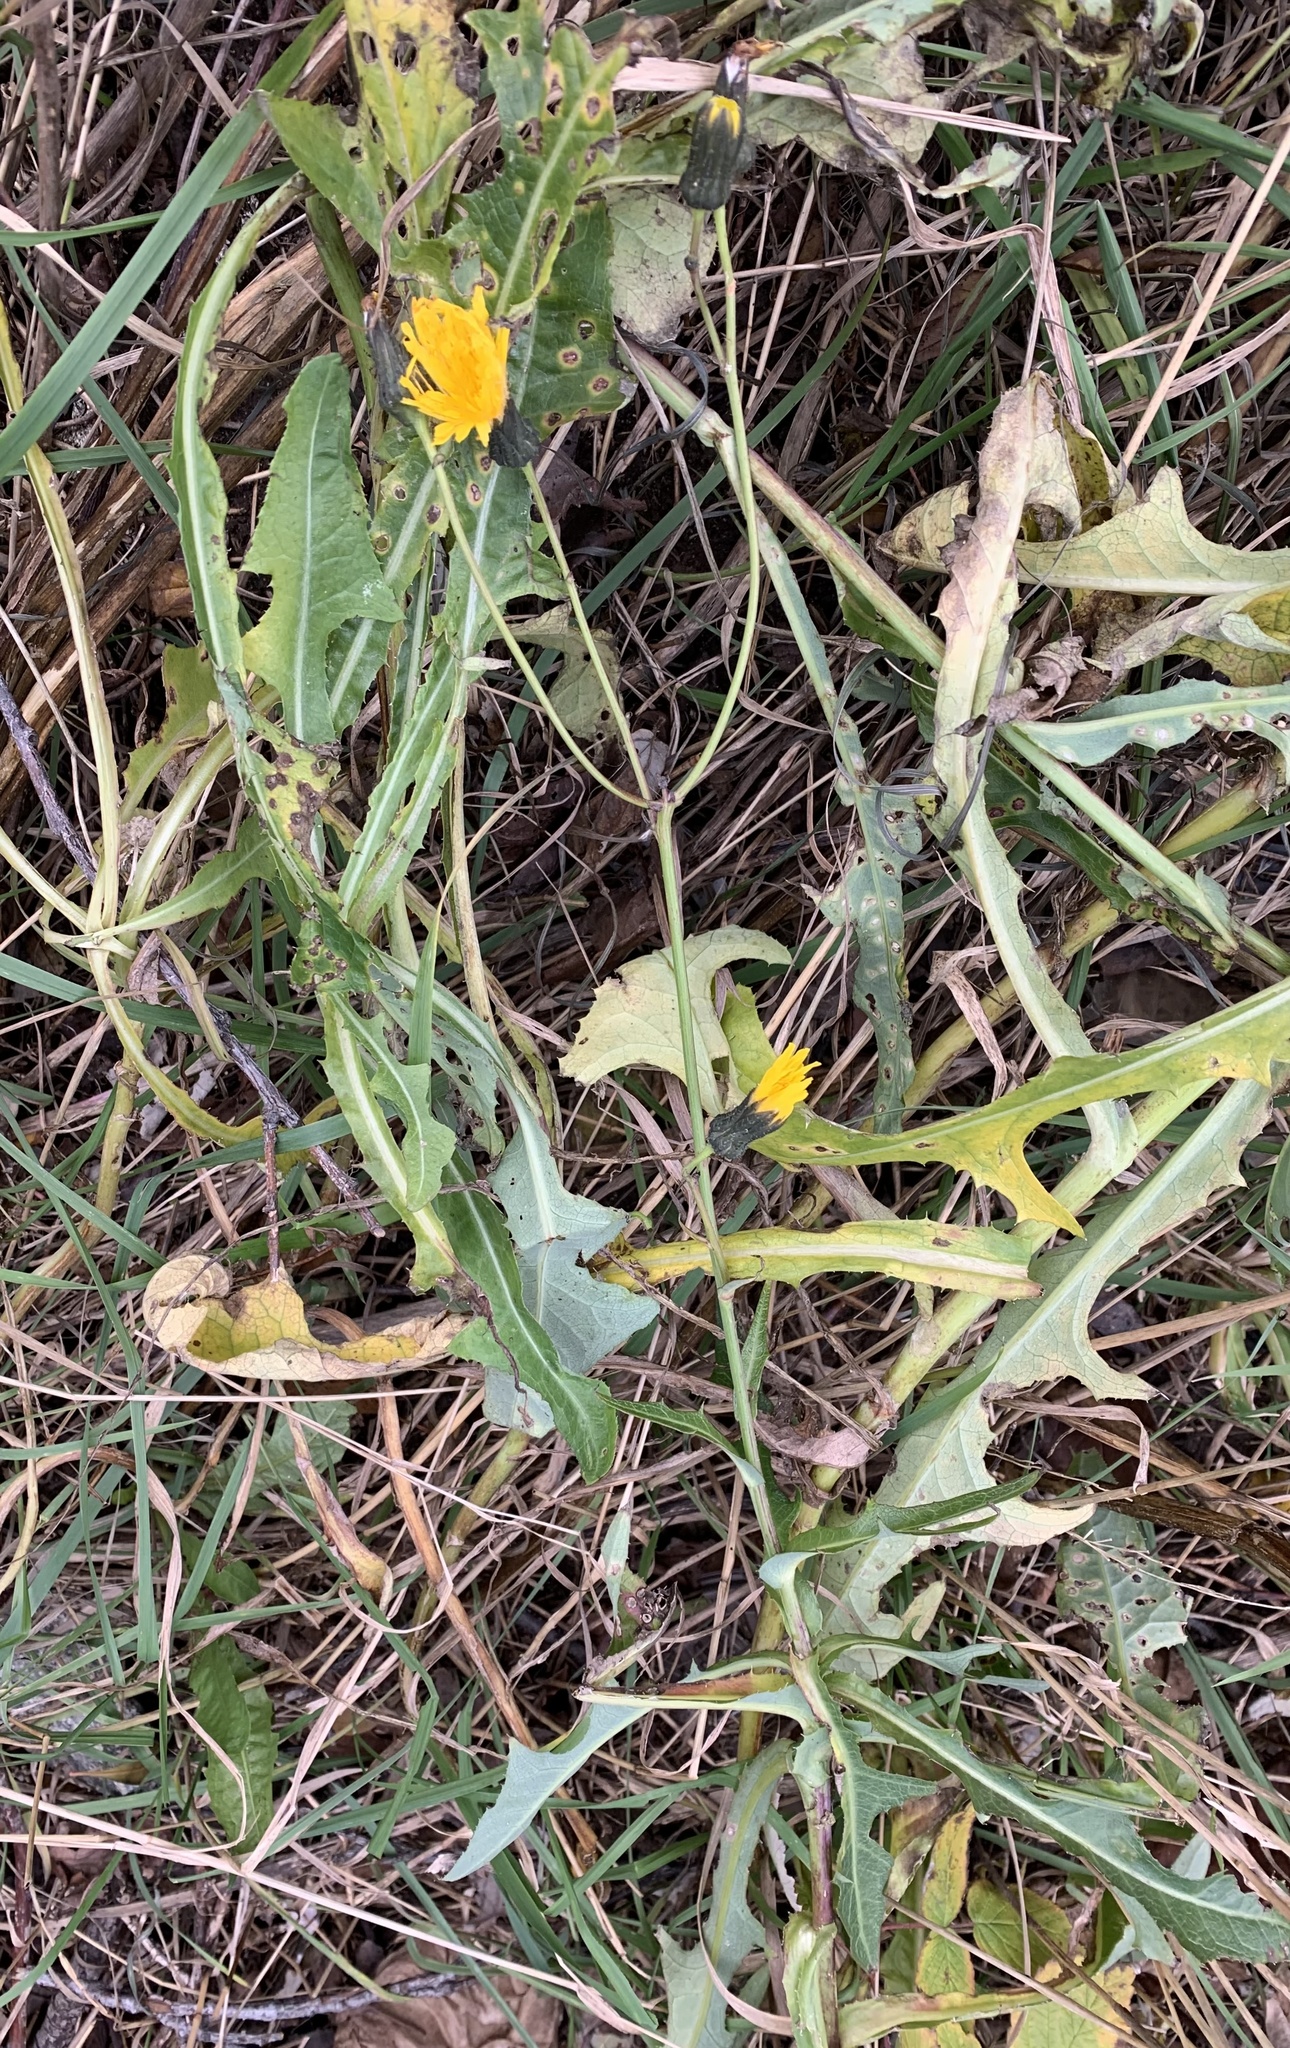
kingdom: Plantae
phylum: Tracheophyta
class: Magnoliopsida
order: Asterales
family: Asteraceae
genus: Sonchus
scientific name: Sonchus arvensis
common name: Perennial sow-thistle
